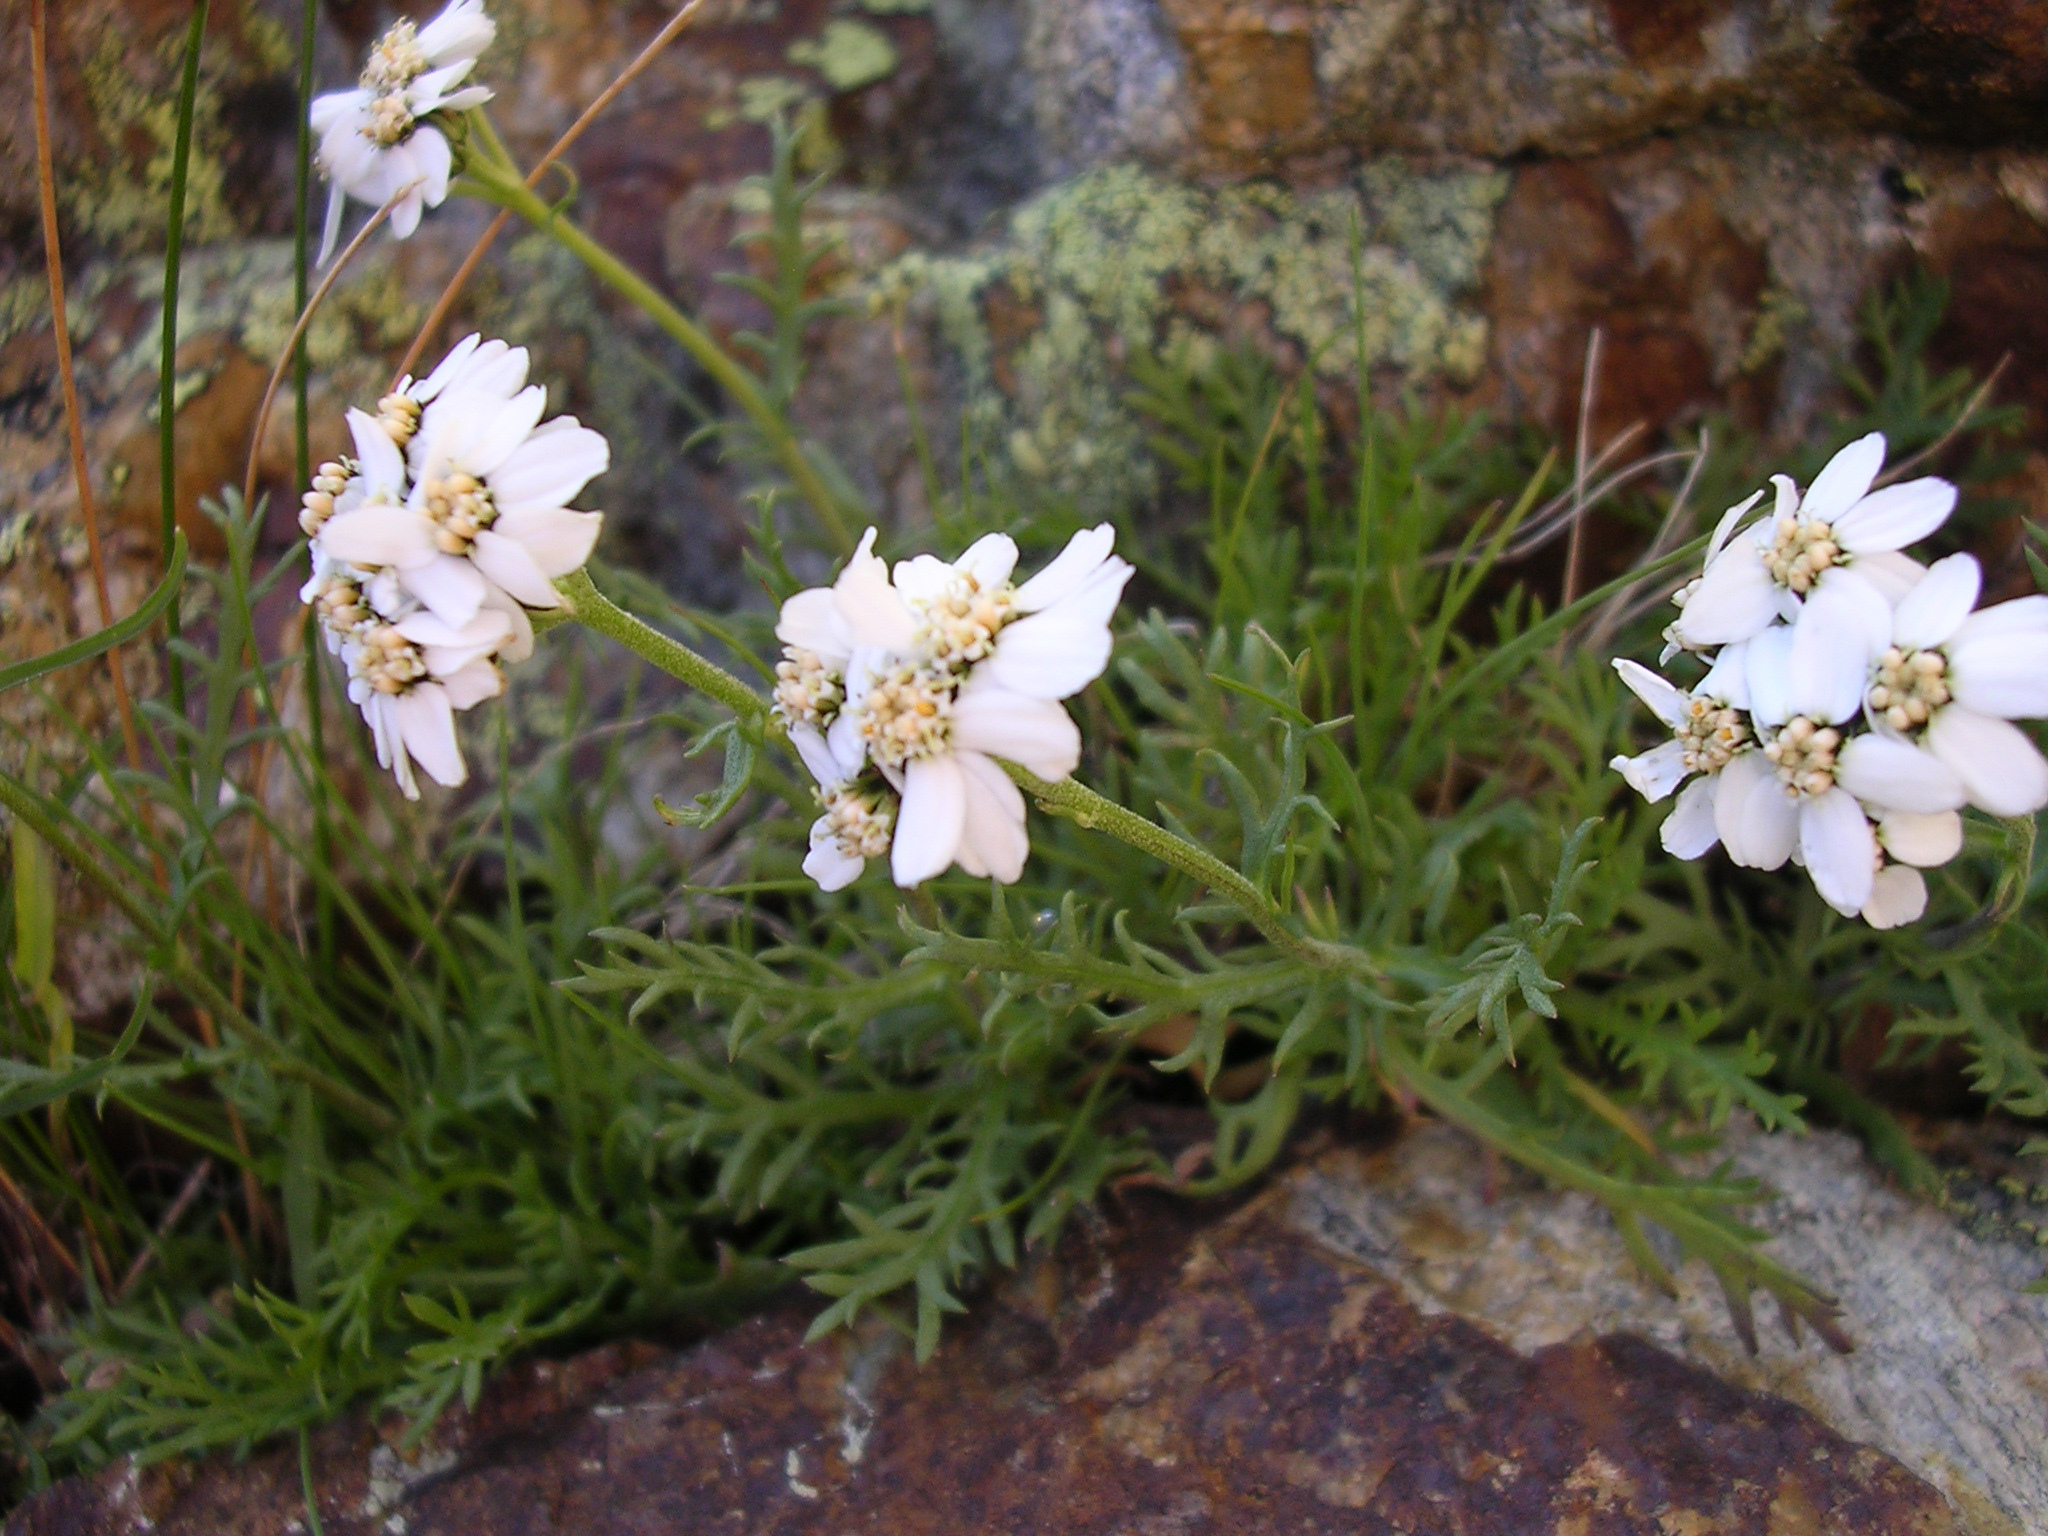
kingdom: Plantae
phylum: Tracheophyta
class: Magnoliopsida
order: Asterales
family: Asteraceae
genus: Achillea
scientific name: Achillea erba-rotta
